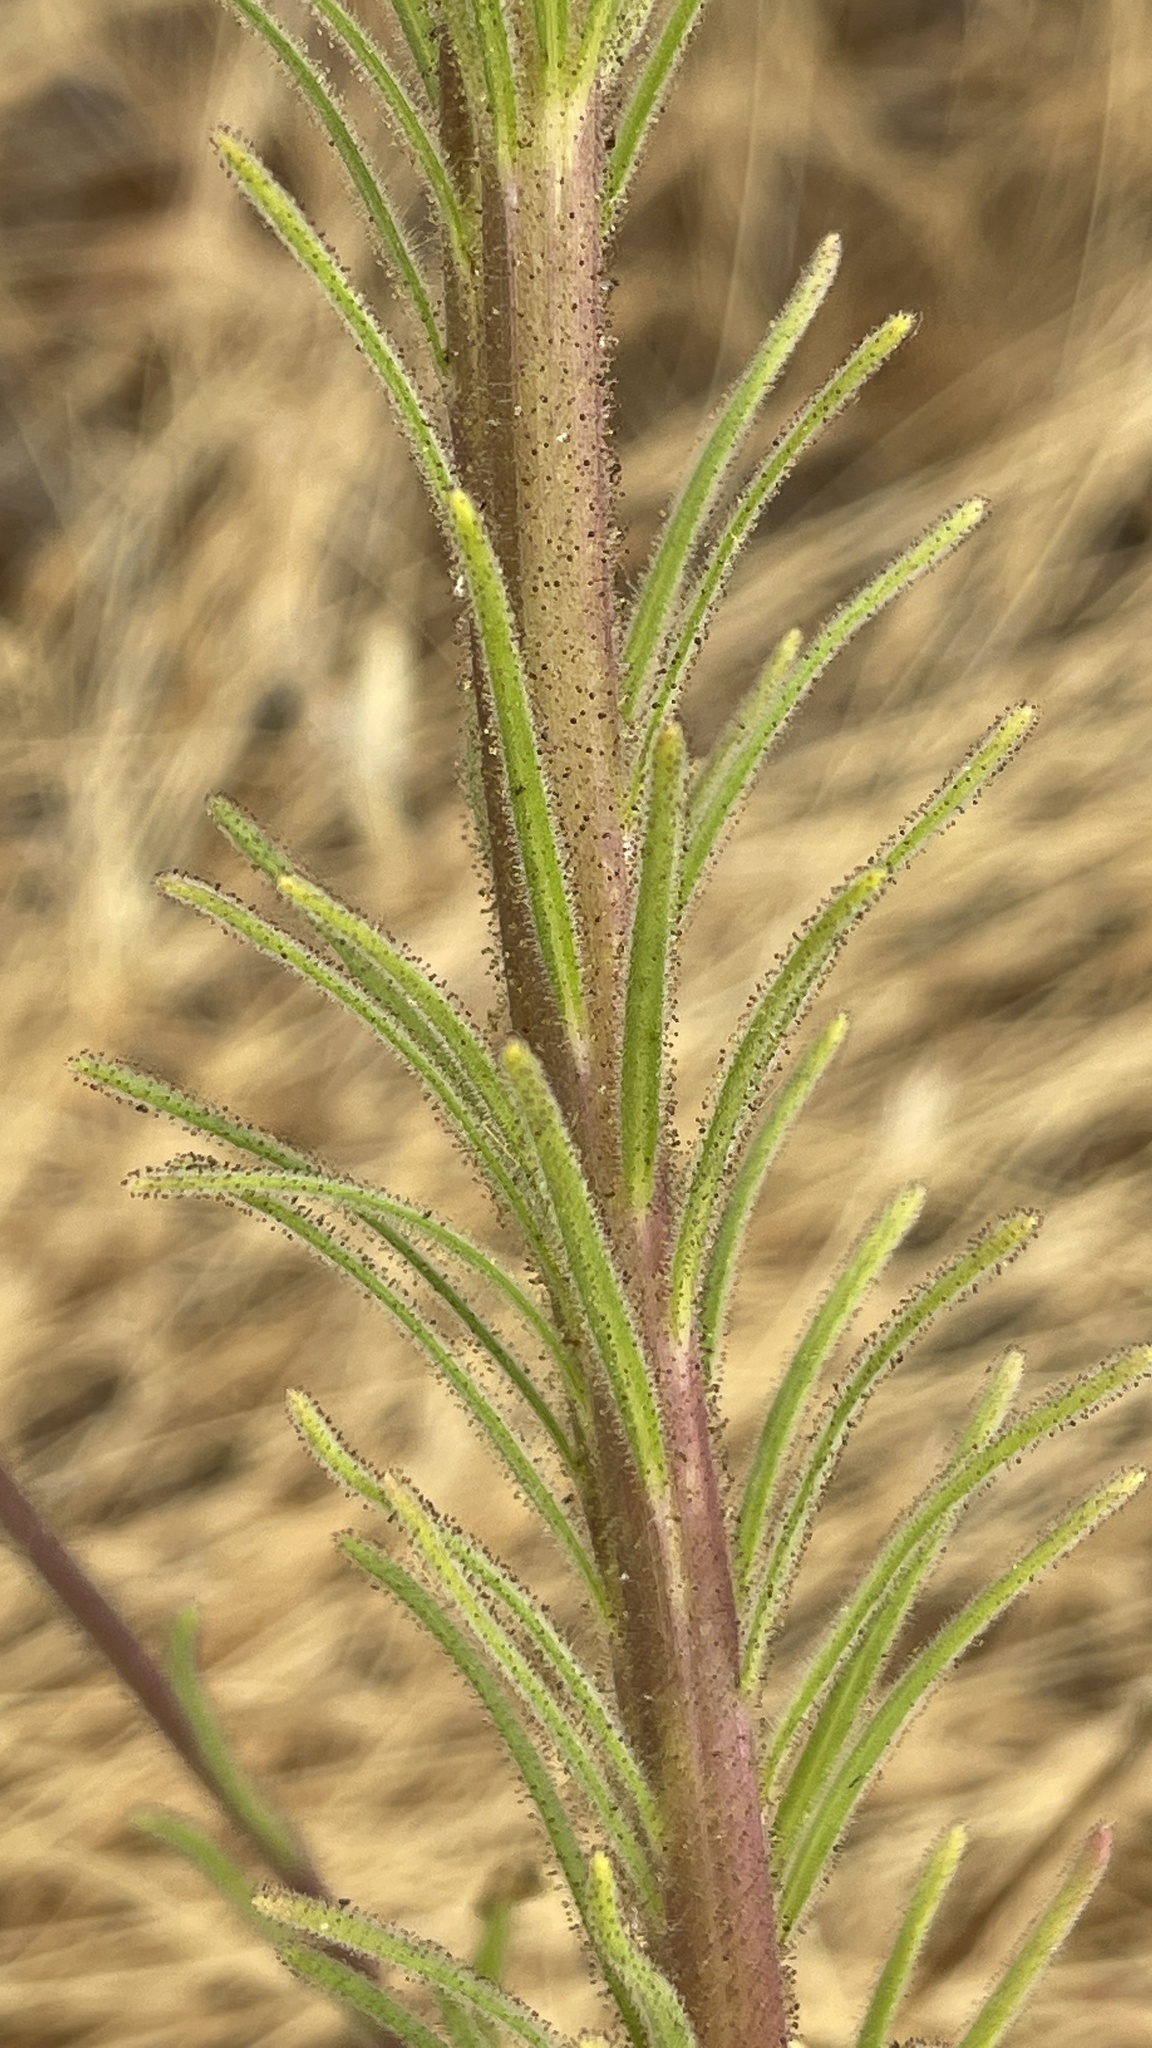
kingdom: Plantae
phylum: Tracheophyta
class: Magnoliopsida
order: Asterales
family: Asteraceae
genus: Madia
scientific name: Madia elegans
